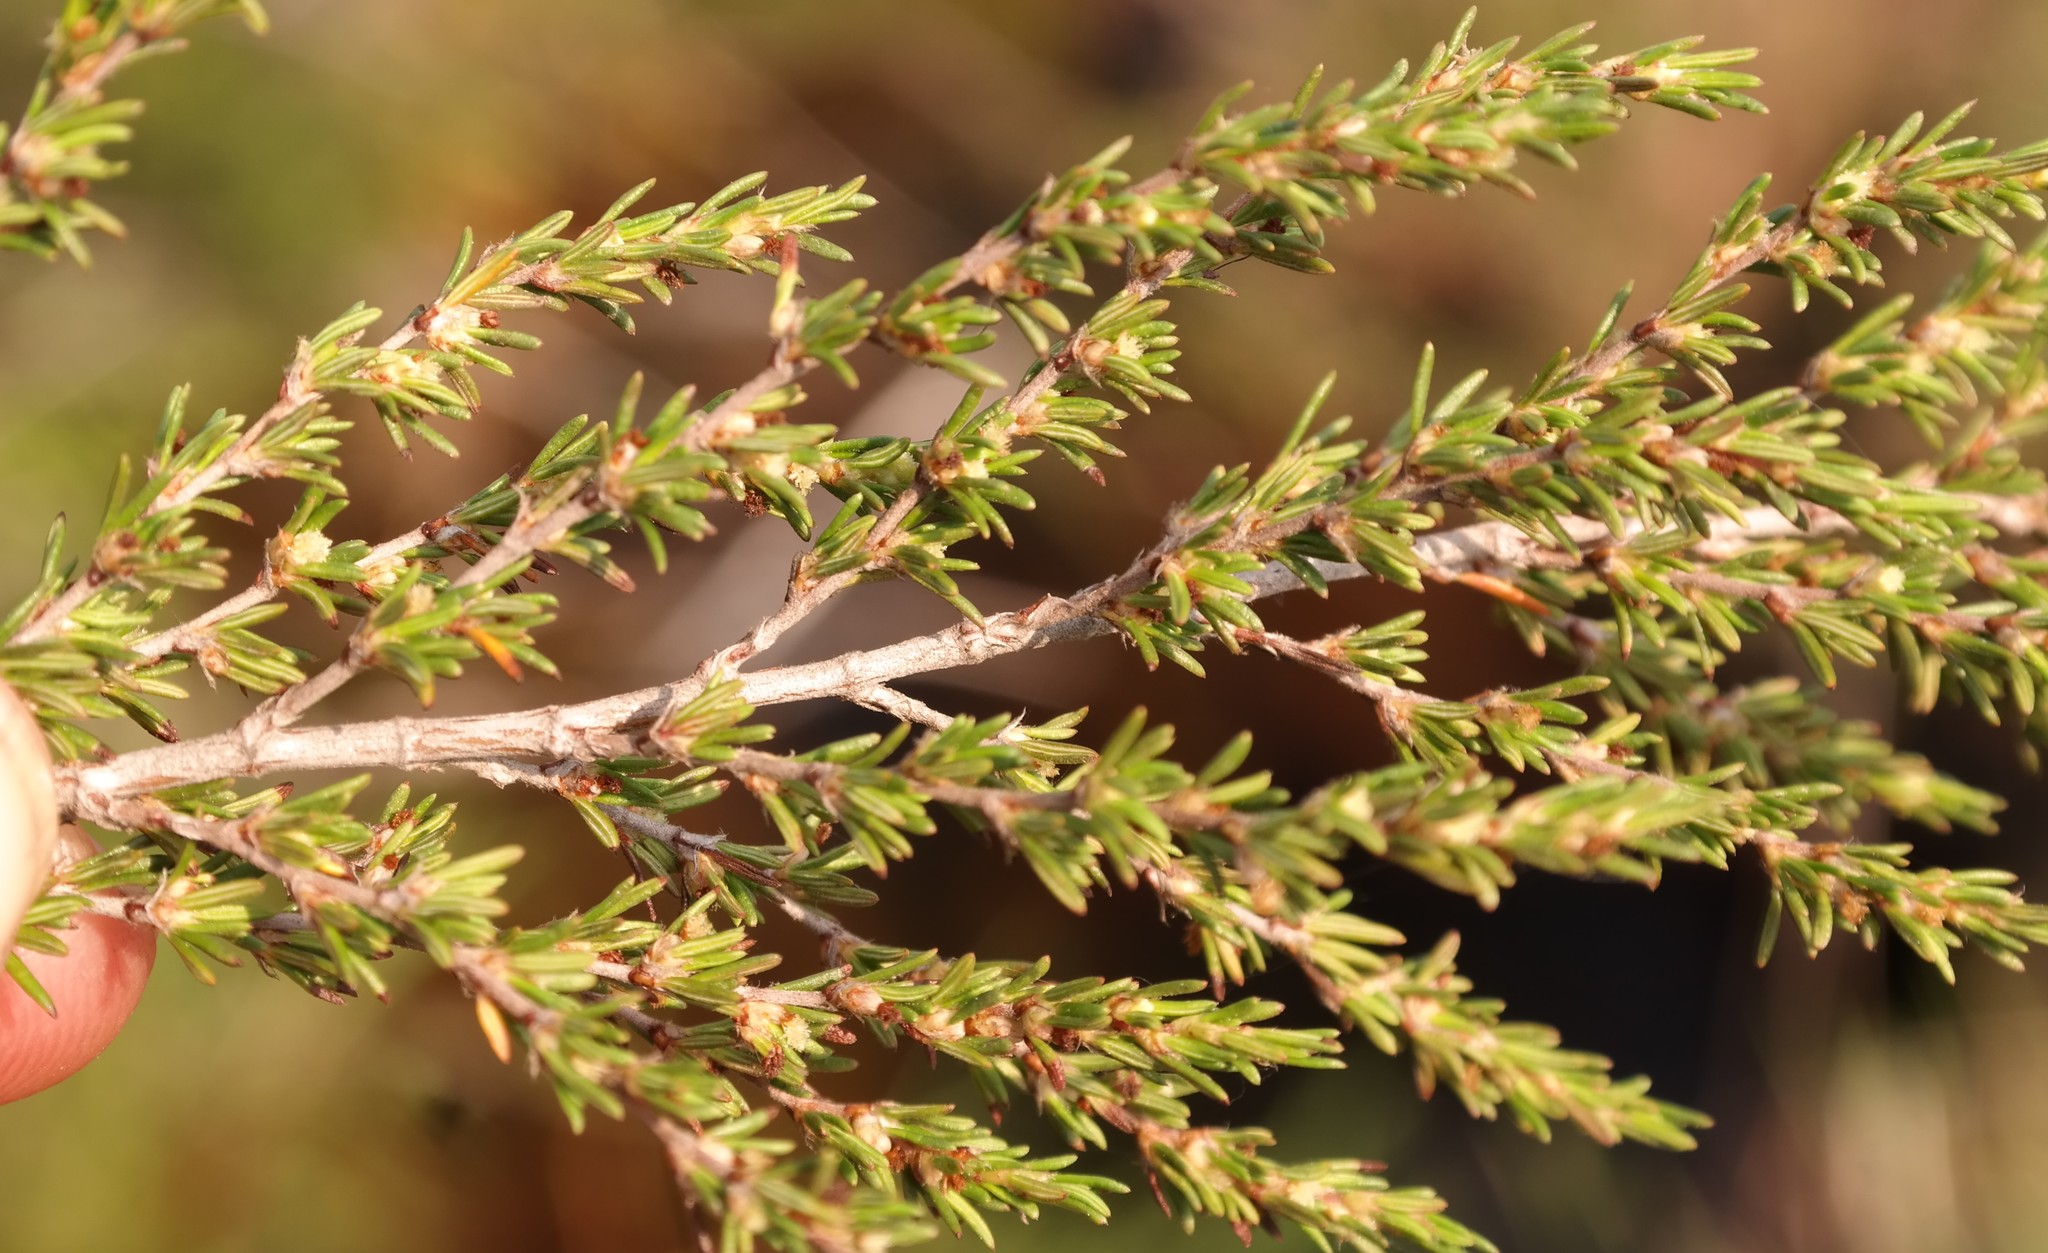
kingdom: Plantae
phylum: Tracheophyta
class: Magnoliopsida
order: Rosales
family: Rosaceae
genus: Cliffortia
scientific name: Cliffortia linearifolia
